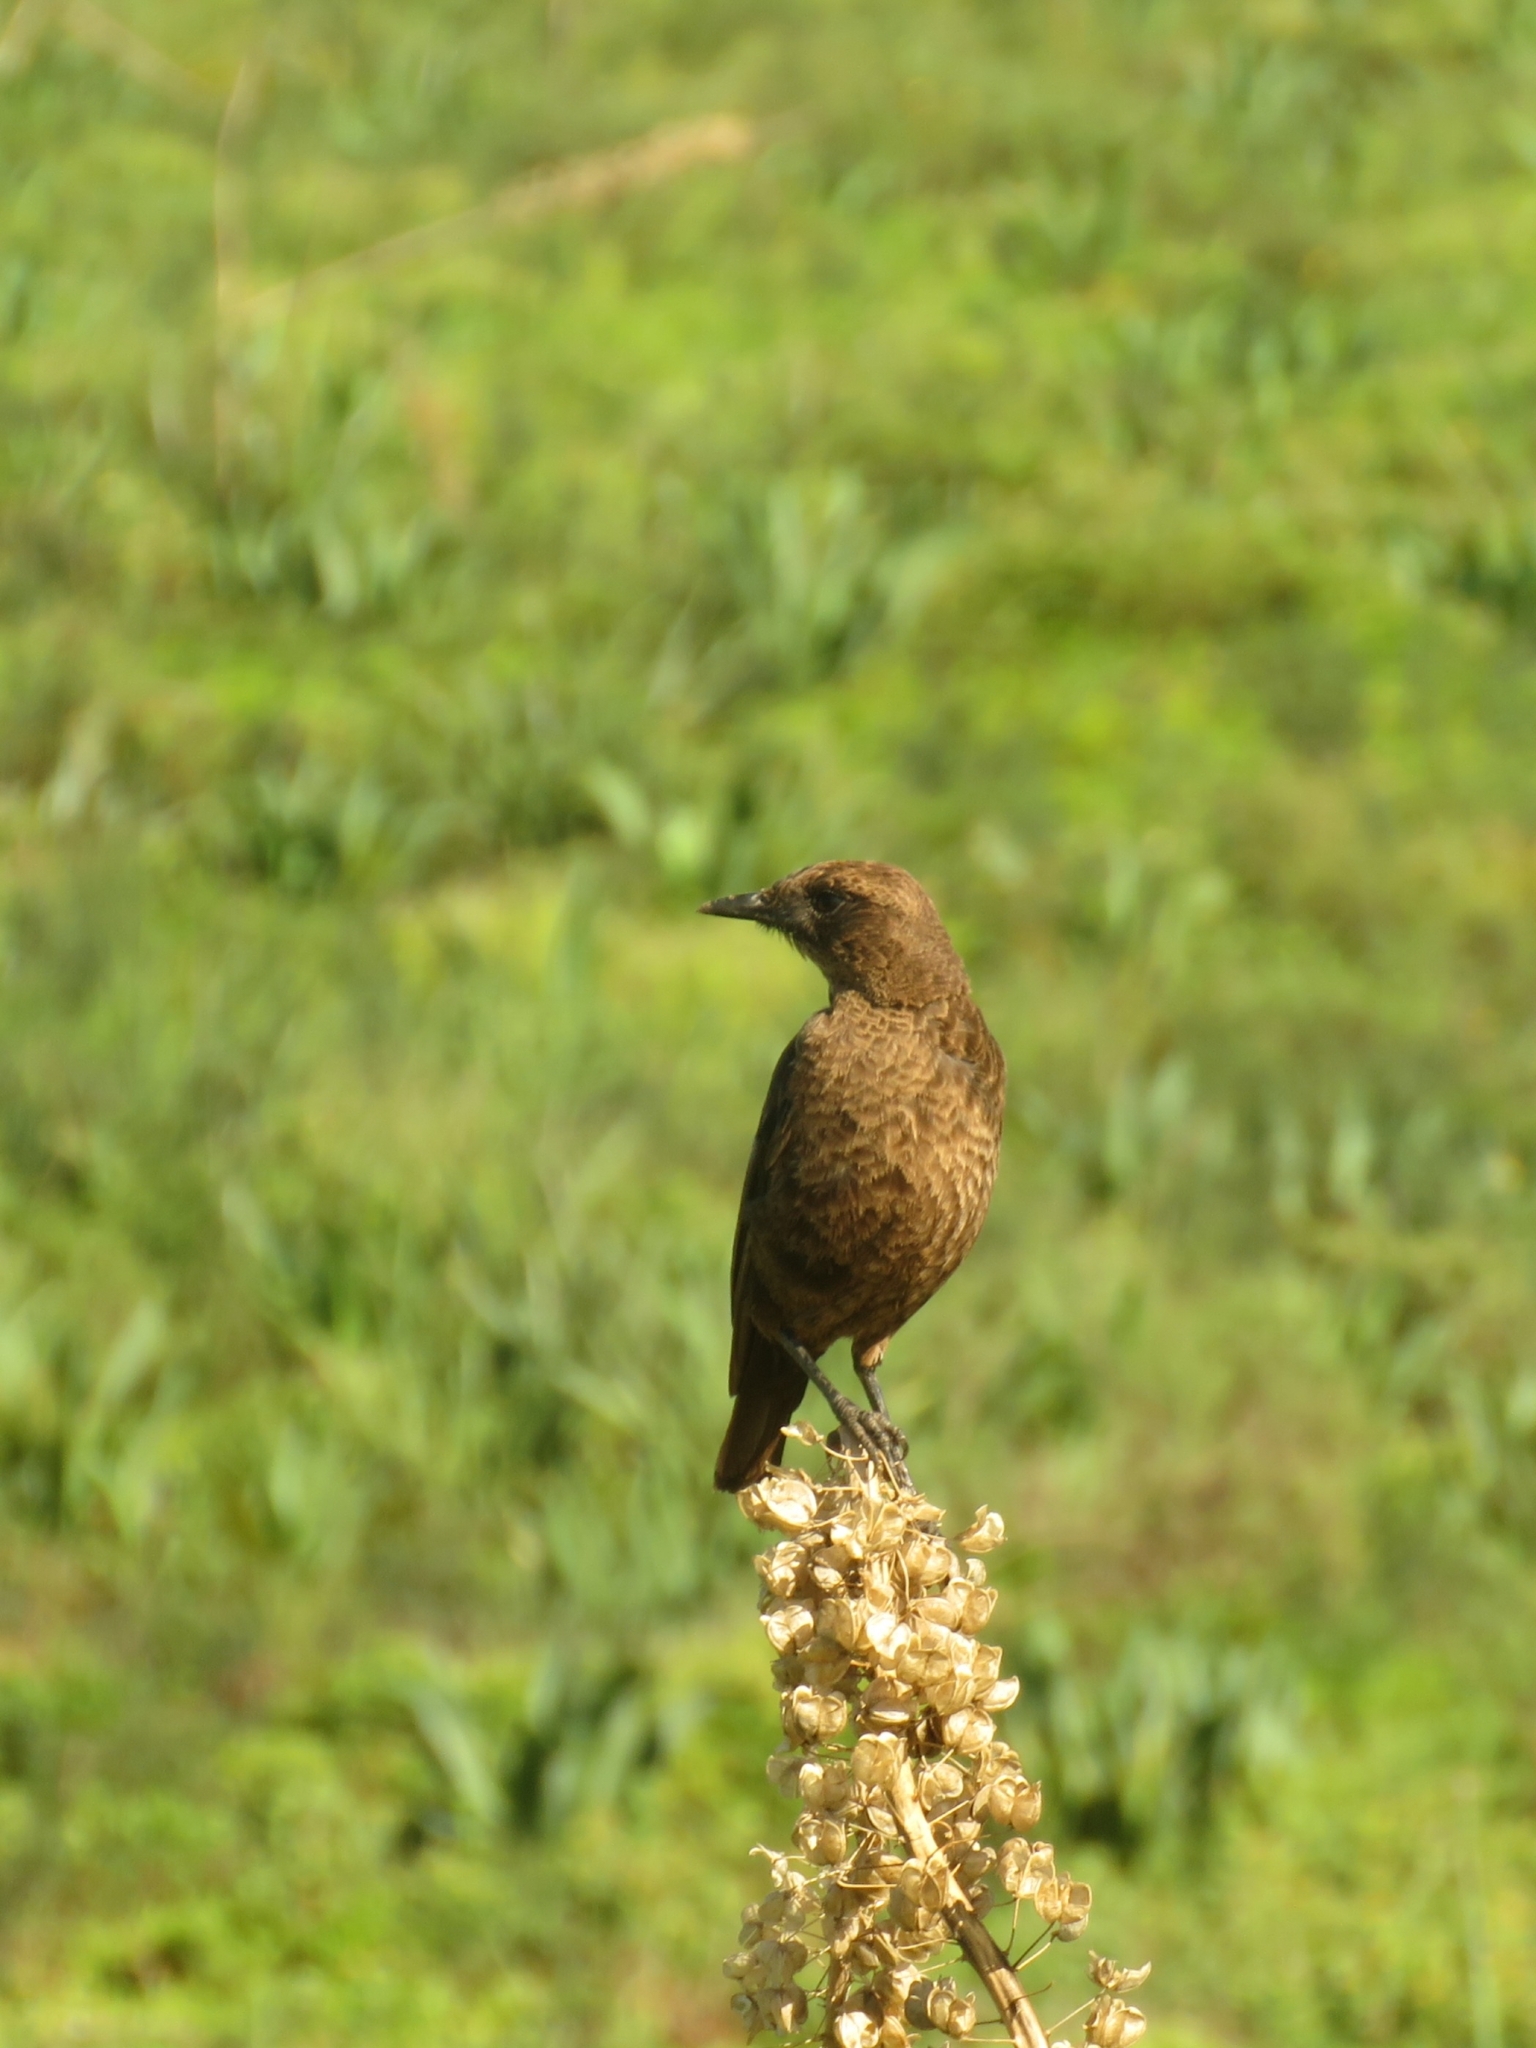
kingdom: Animalia
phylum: Chordata
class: Aves
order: Passeriformes
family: Muscicapidae
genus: Myrmecocichla
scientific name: Myrmecocichla formicivora
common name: Ant-eating chat
